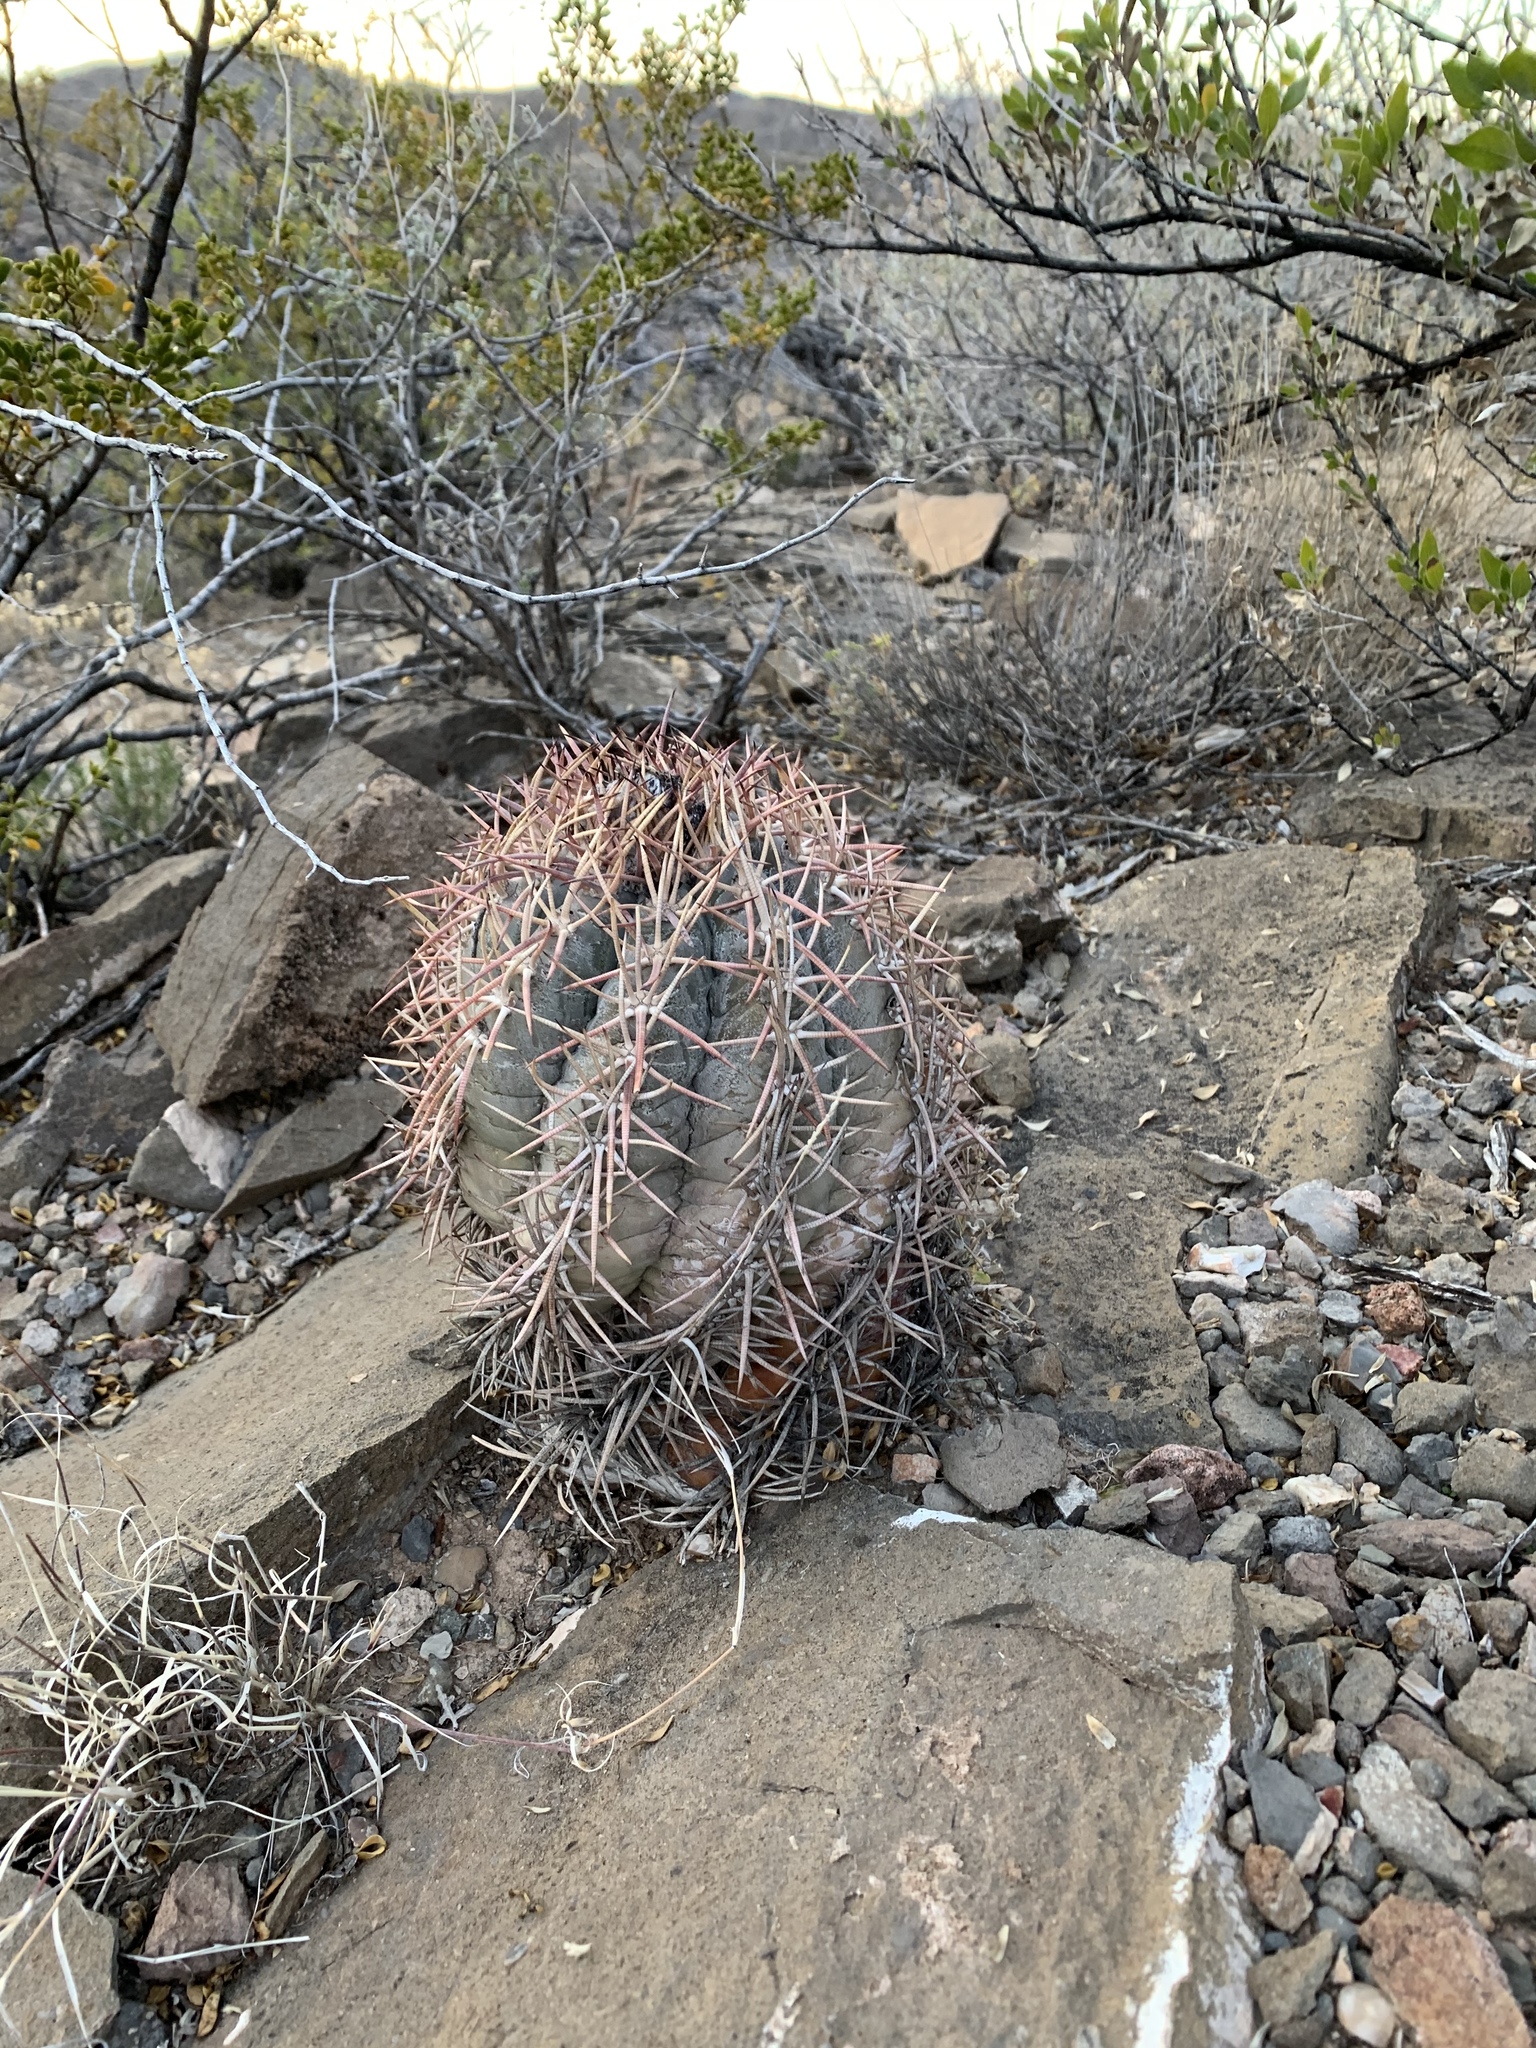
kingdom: Plantae
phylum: Tracheophyta
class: Magnoliopsida
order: Caryophyllales
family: Cactaceae
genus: Echinocactus
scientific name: Echinocactus horizonthalonius
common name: Devilshead
